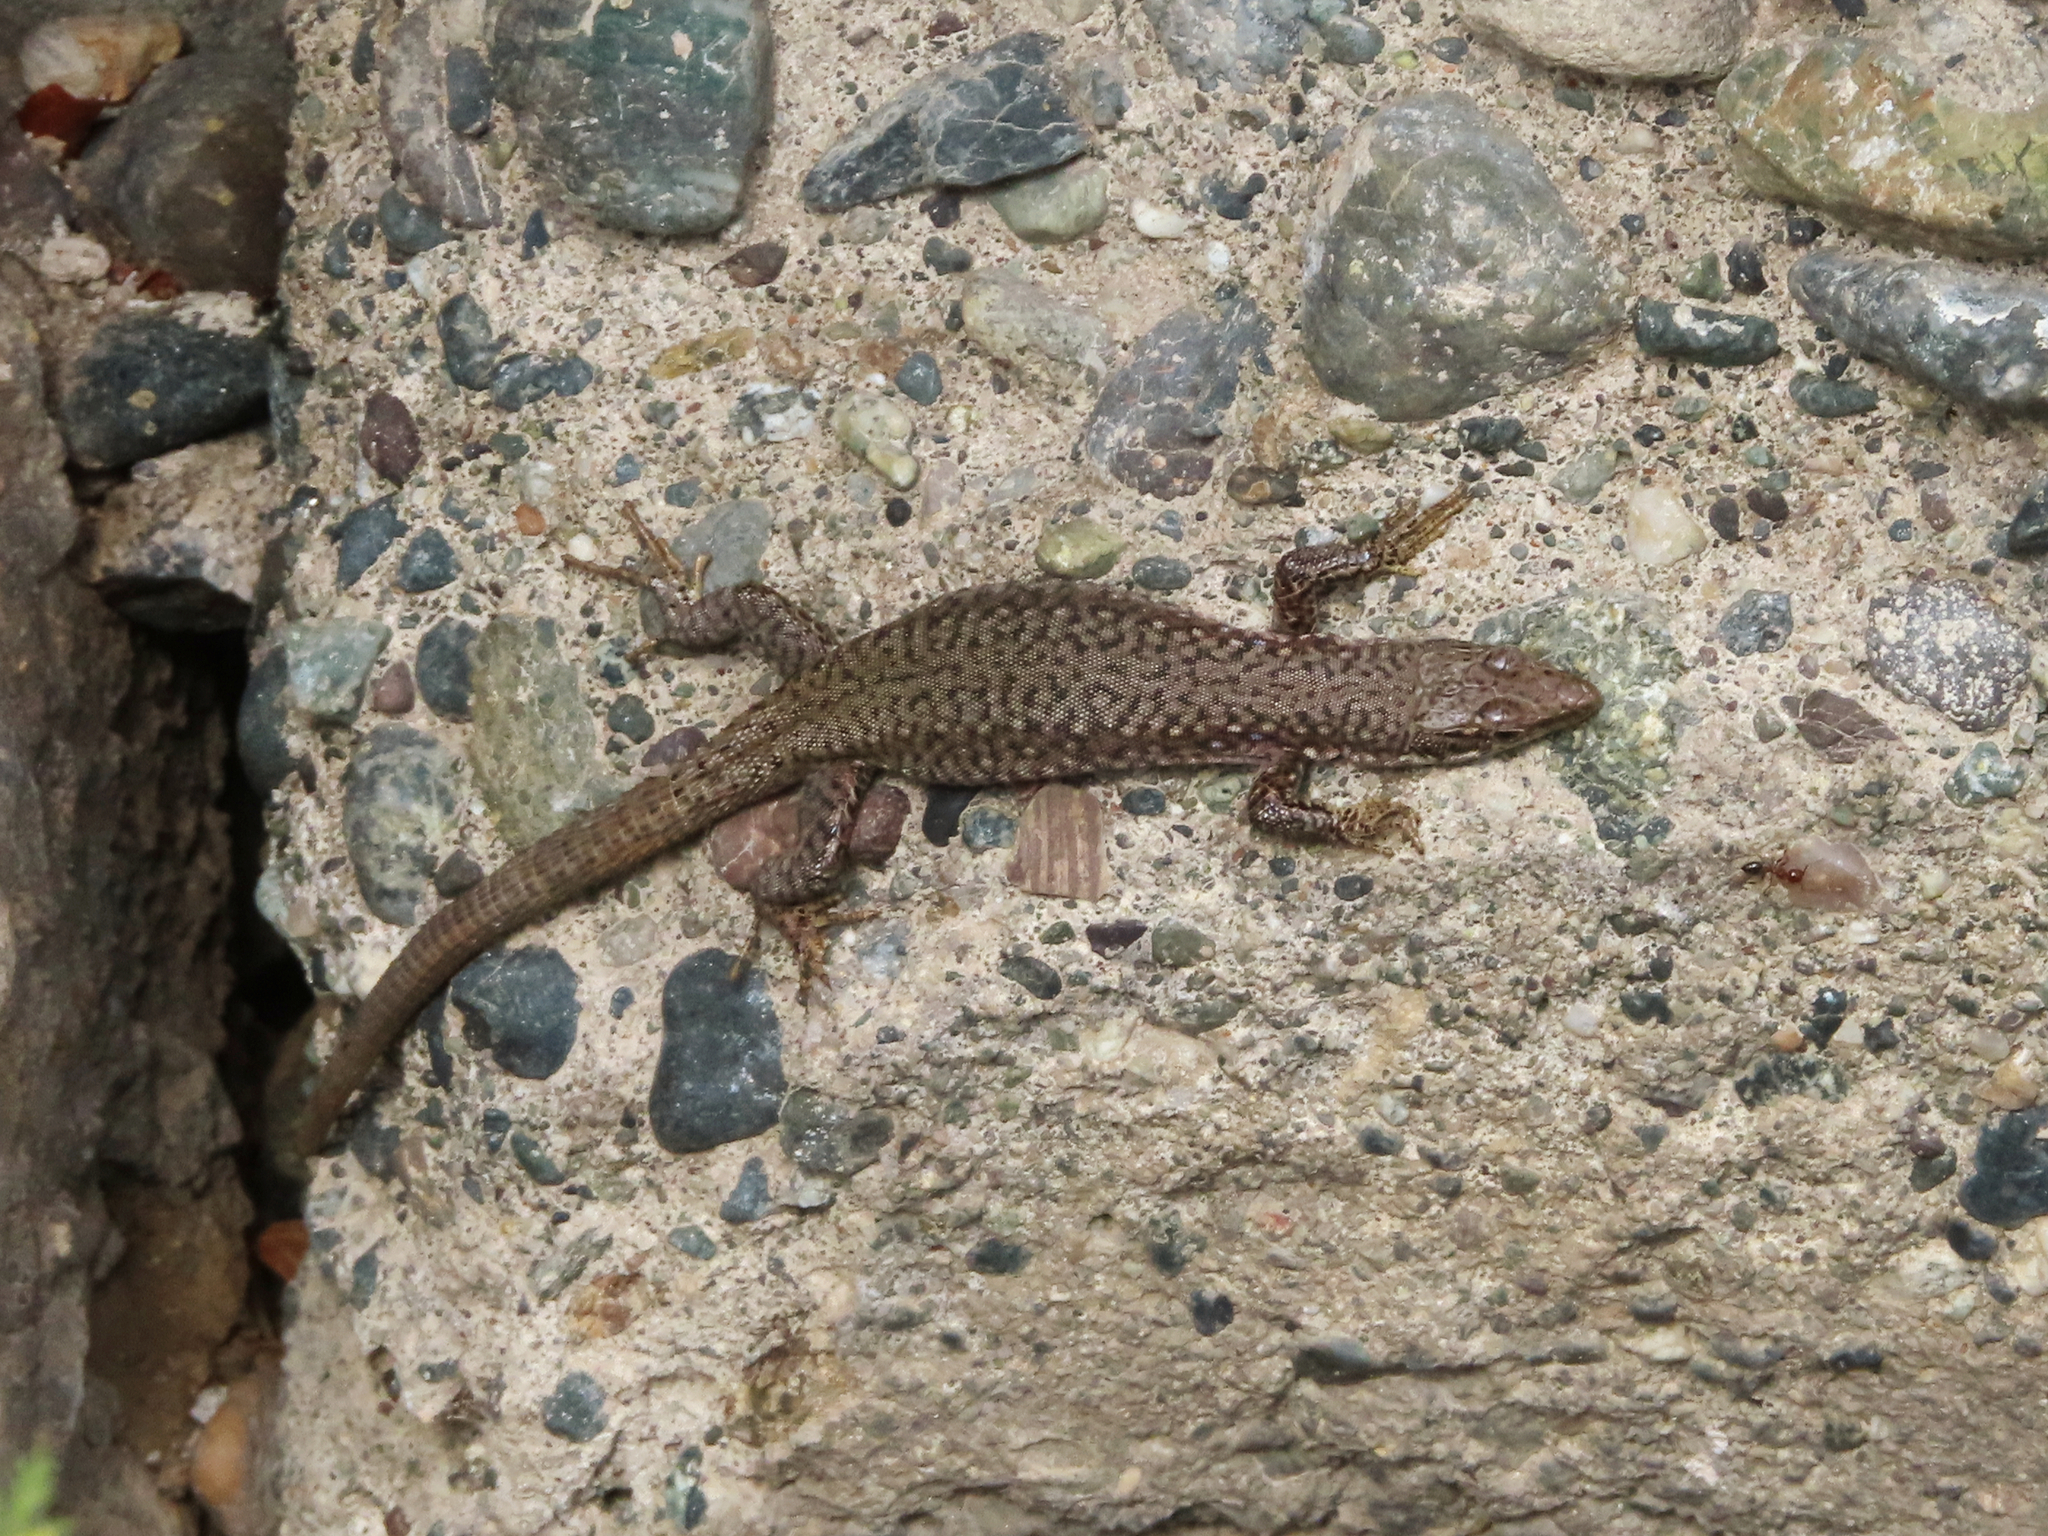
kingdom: Animalia
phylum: Chordata
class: Squamata
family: Lacertidae
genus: Darevskia
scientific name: Darevskia
